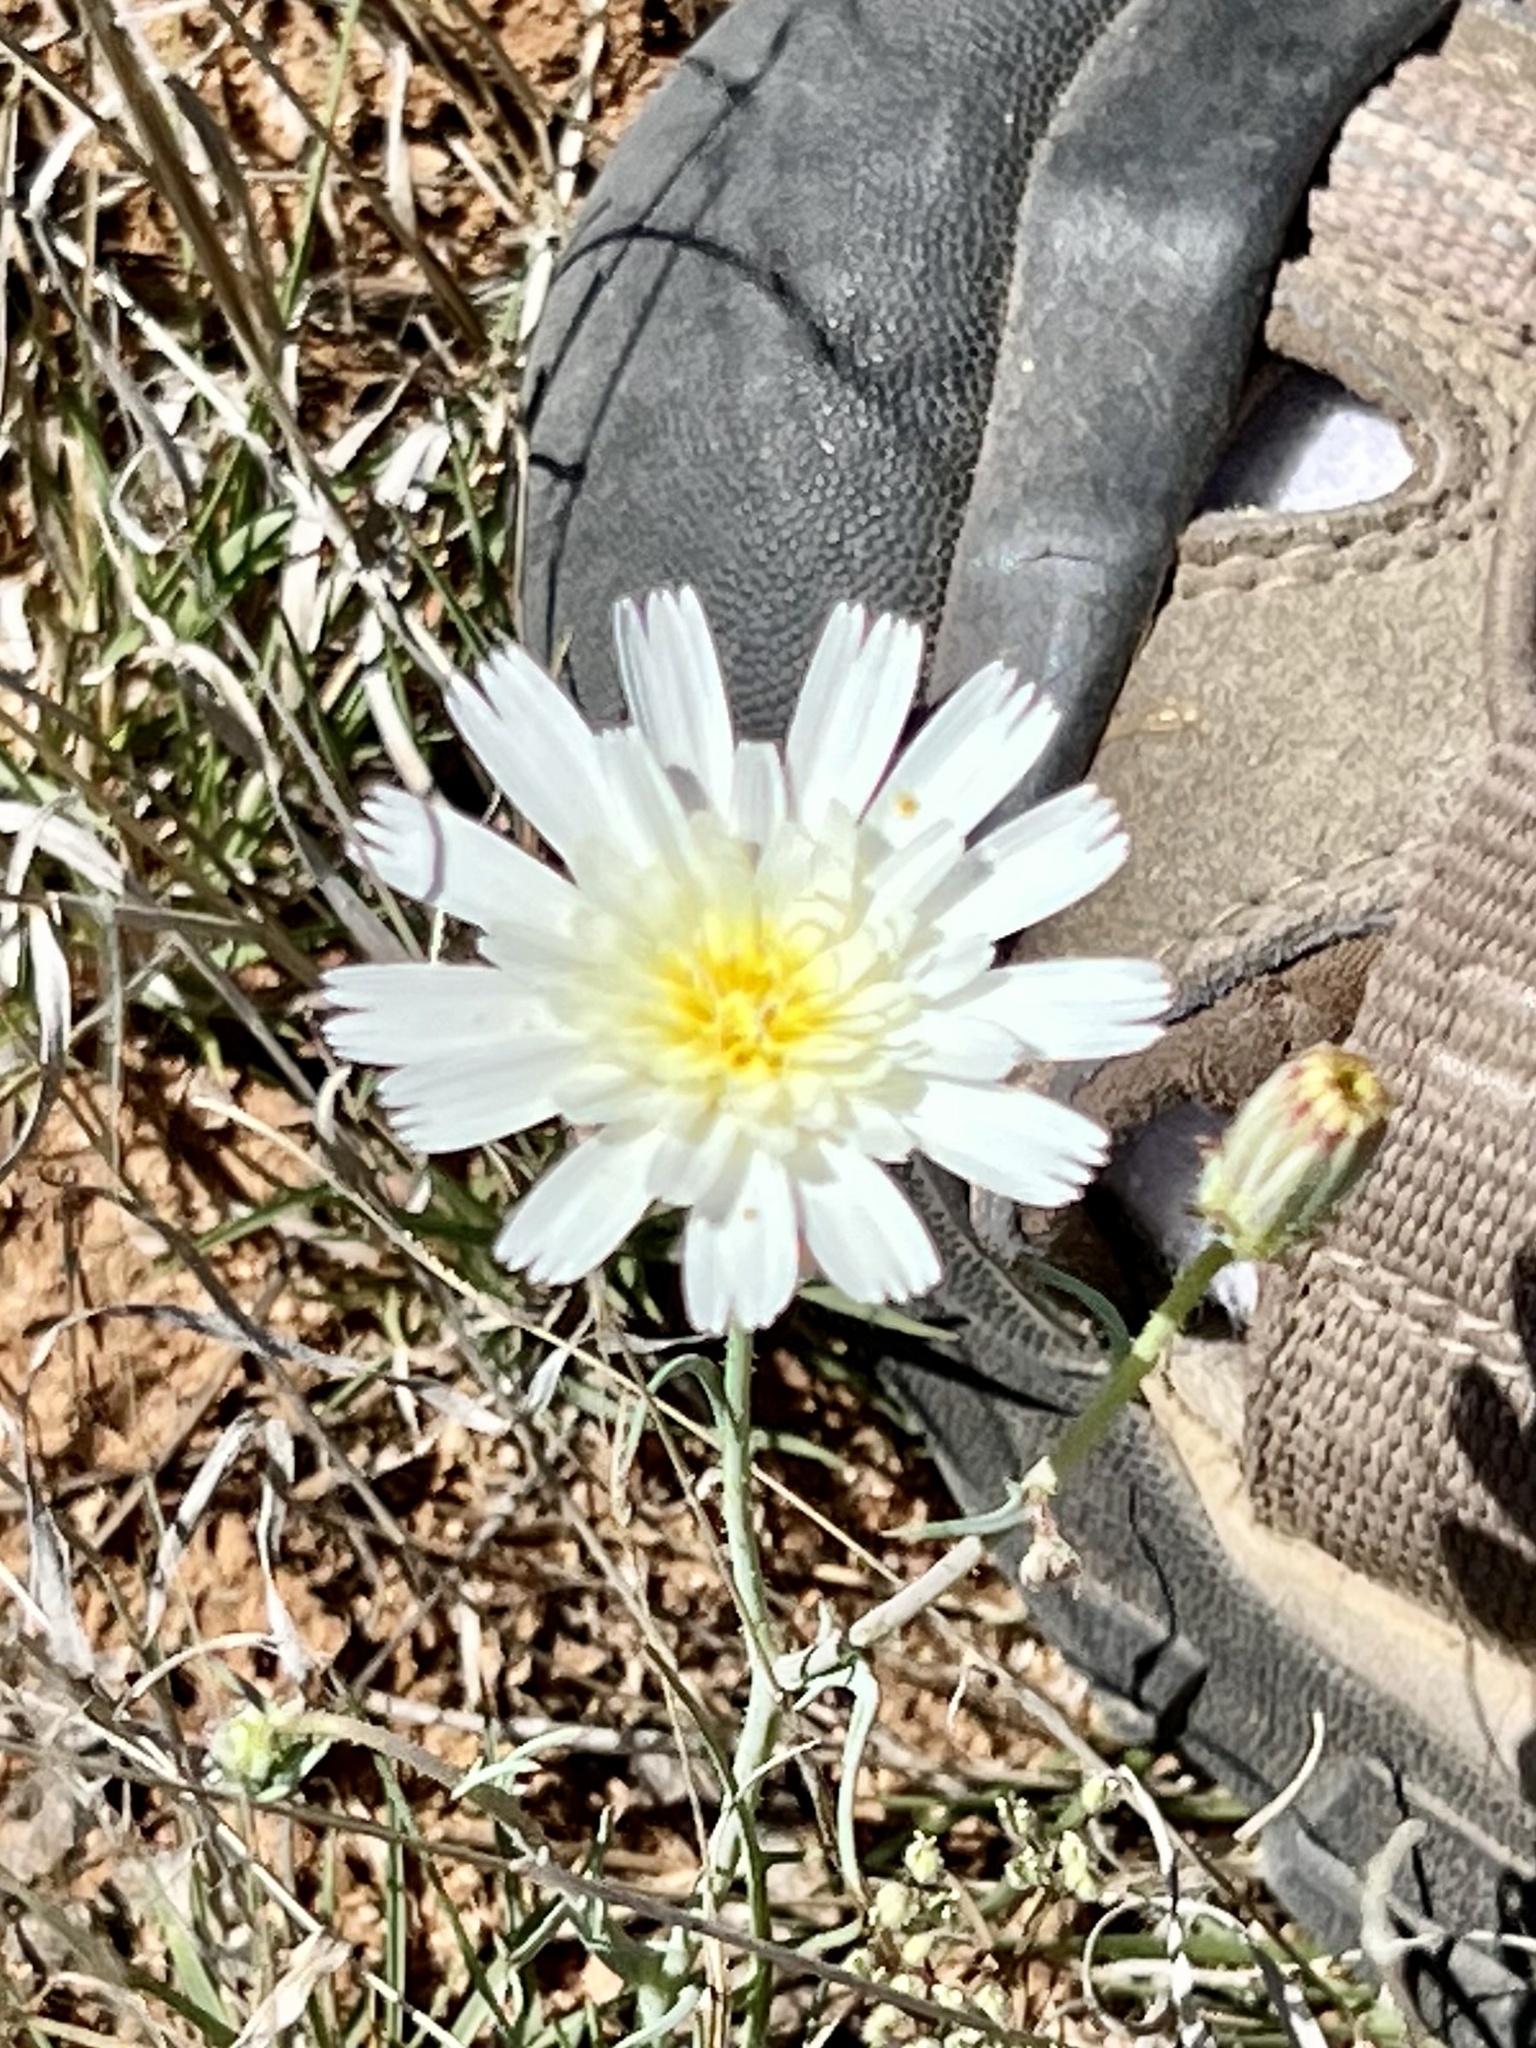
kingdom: Plantae
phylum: Tracheophyta
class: Magnoliopsida
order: Asterales
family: Asteraceae
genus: Calycoseris
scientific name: Calycoseris wrightii
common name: White tackstem
